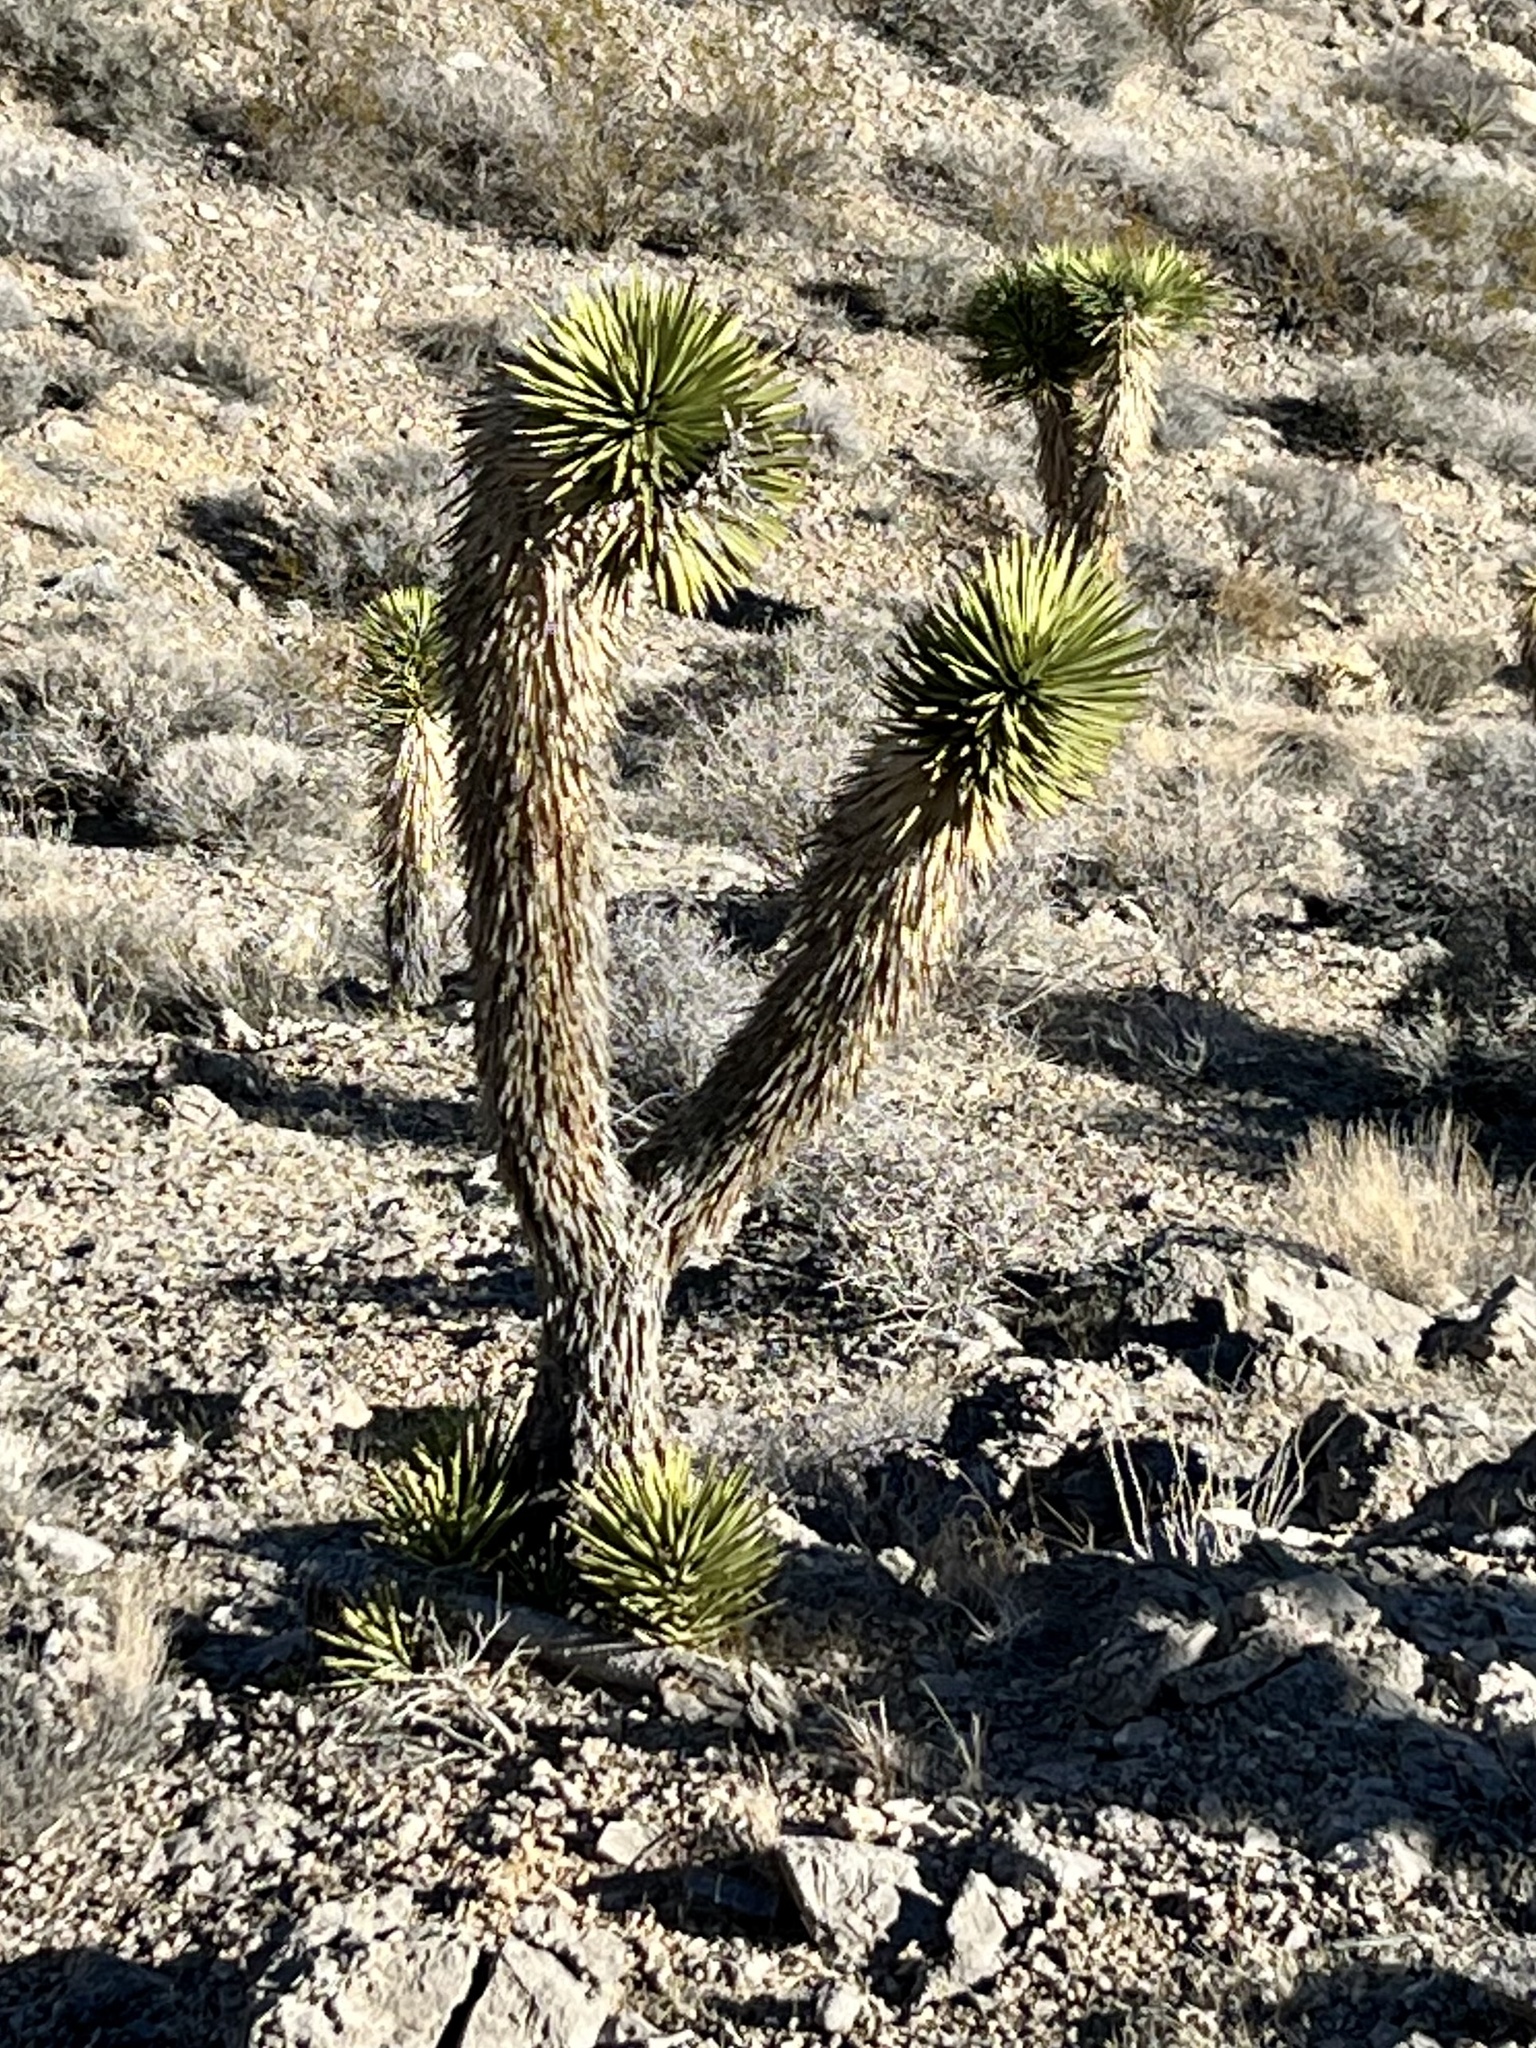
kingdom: Plantae
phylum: Tracheophyta
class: Liliopsida
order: Asparagales
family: Asparagaceae
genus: Yucca
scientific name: Yucca brevifolia
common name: Joshua tree
